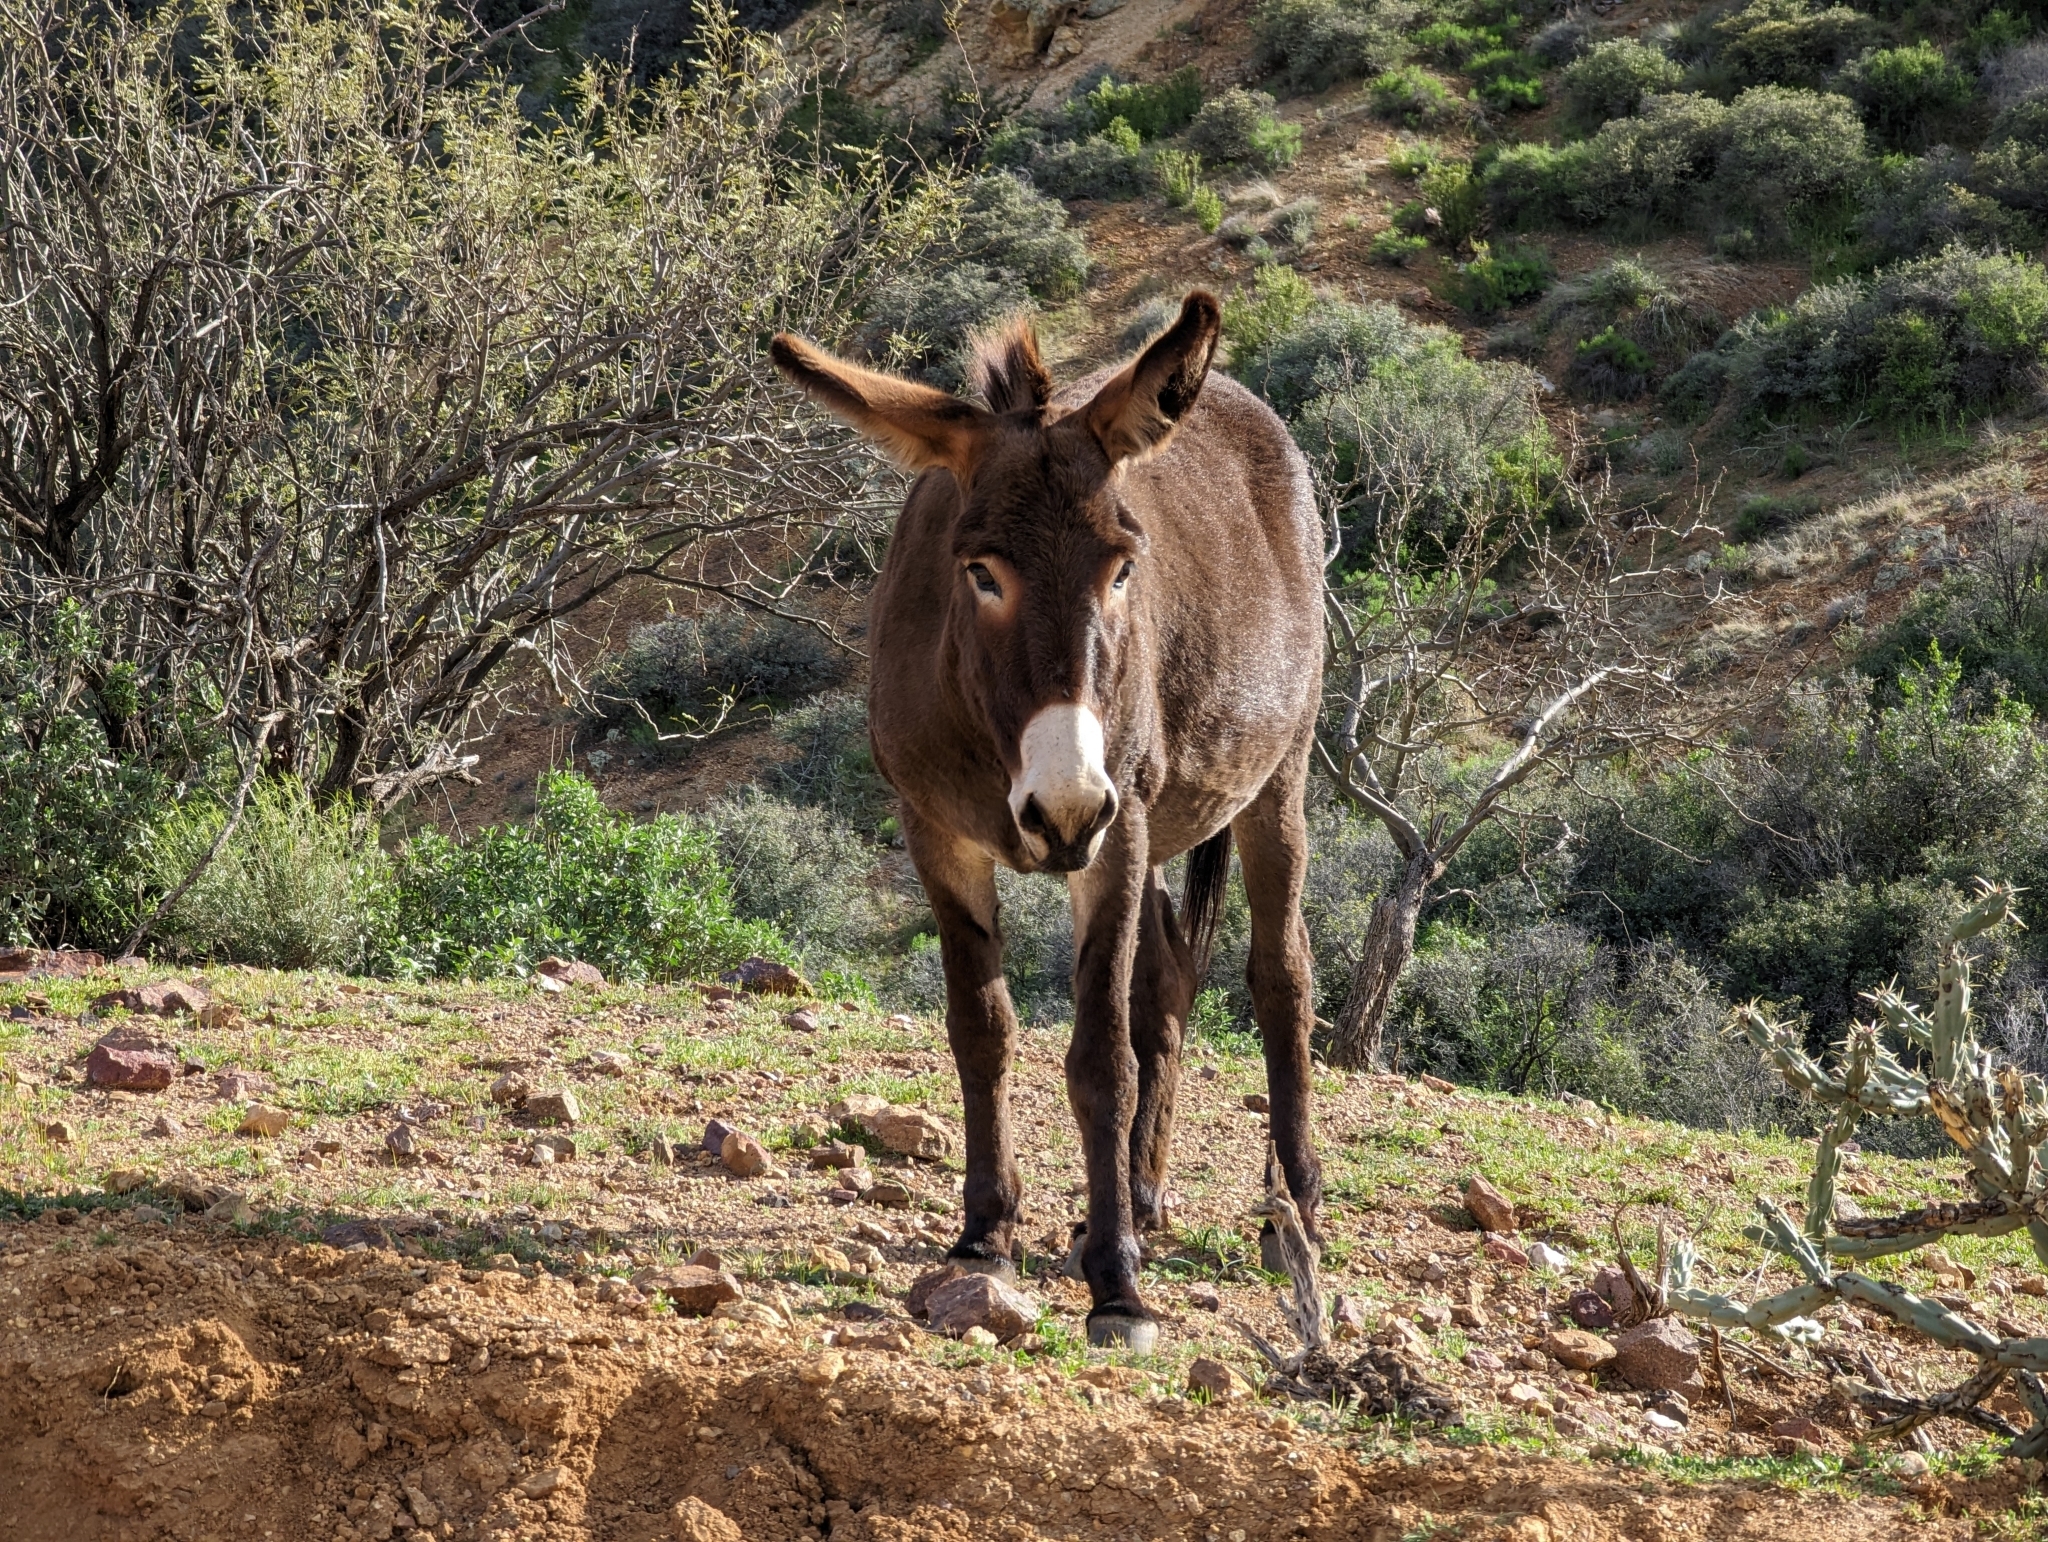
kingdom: Animalia
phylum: Chordata
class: Mammalia
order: Perissodactyla
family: Equidae
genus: Equus
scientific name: Equus asinus
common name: Ass
